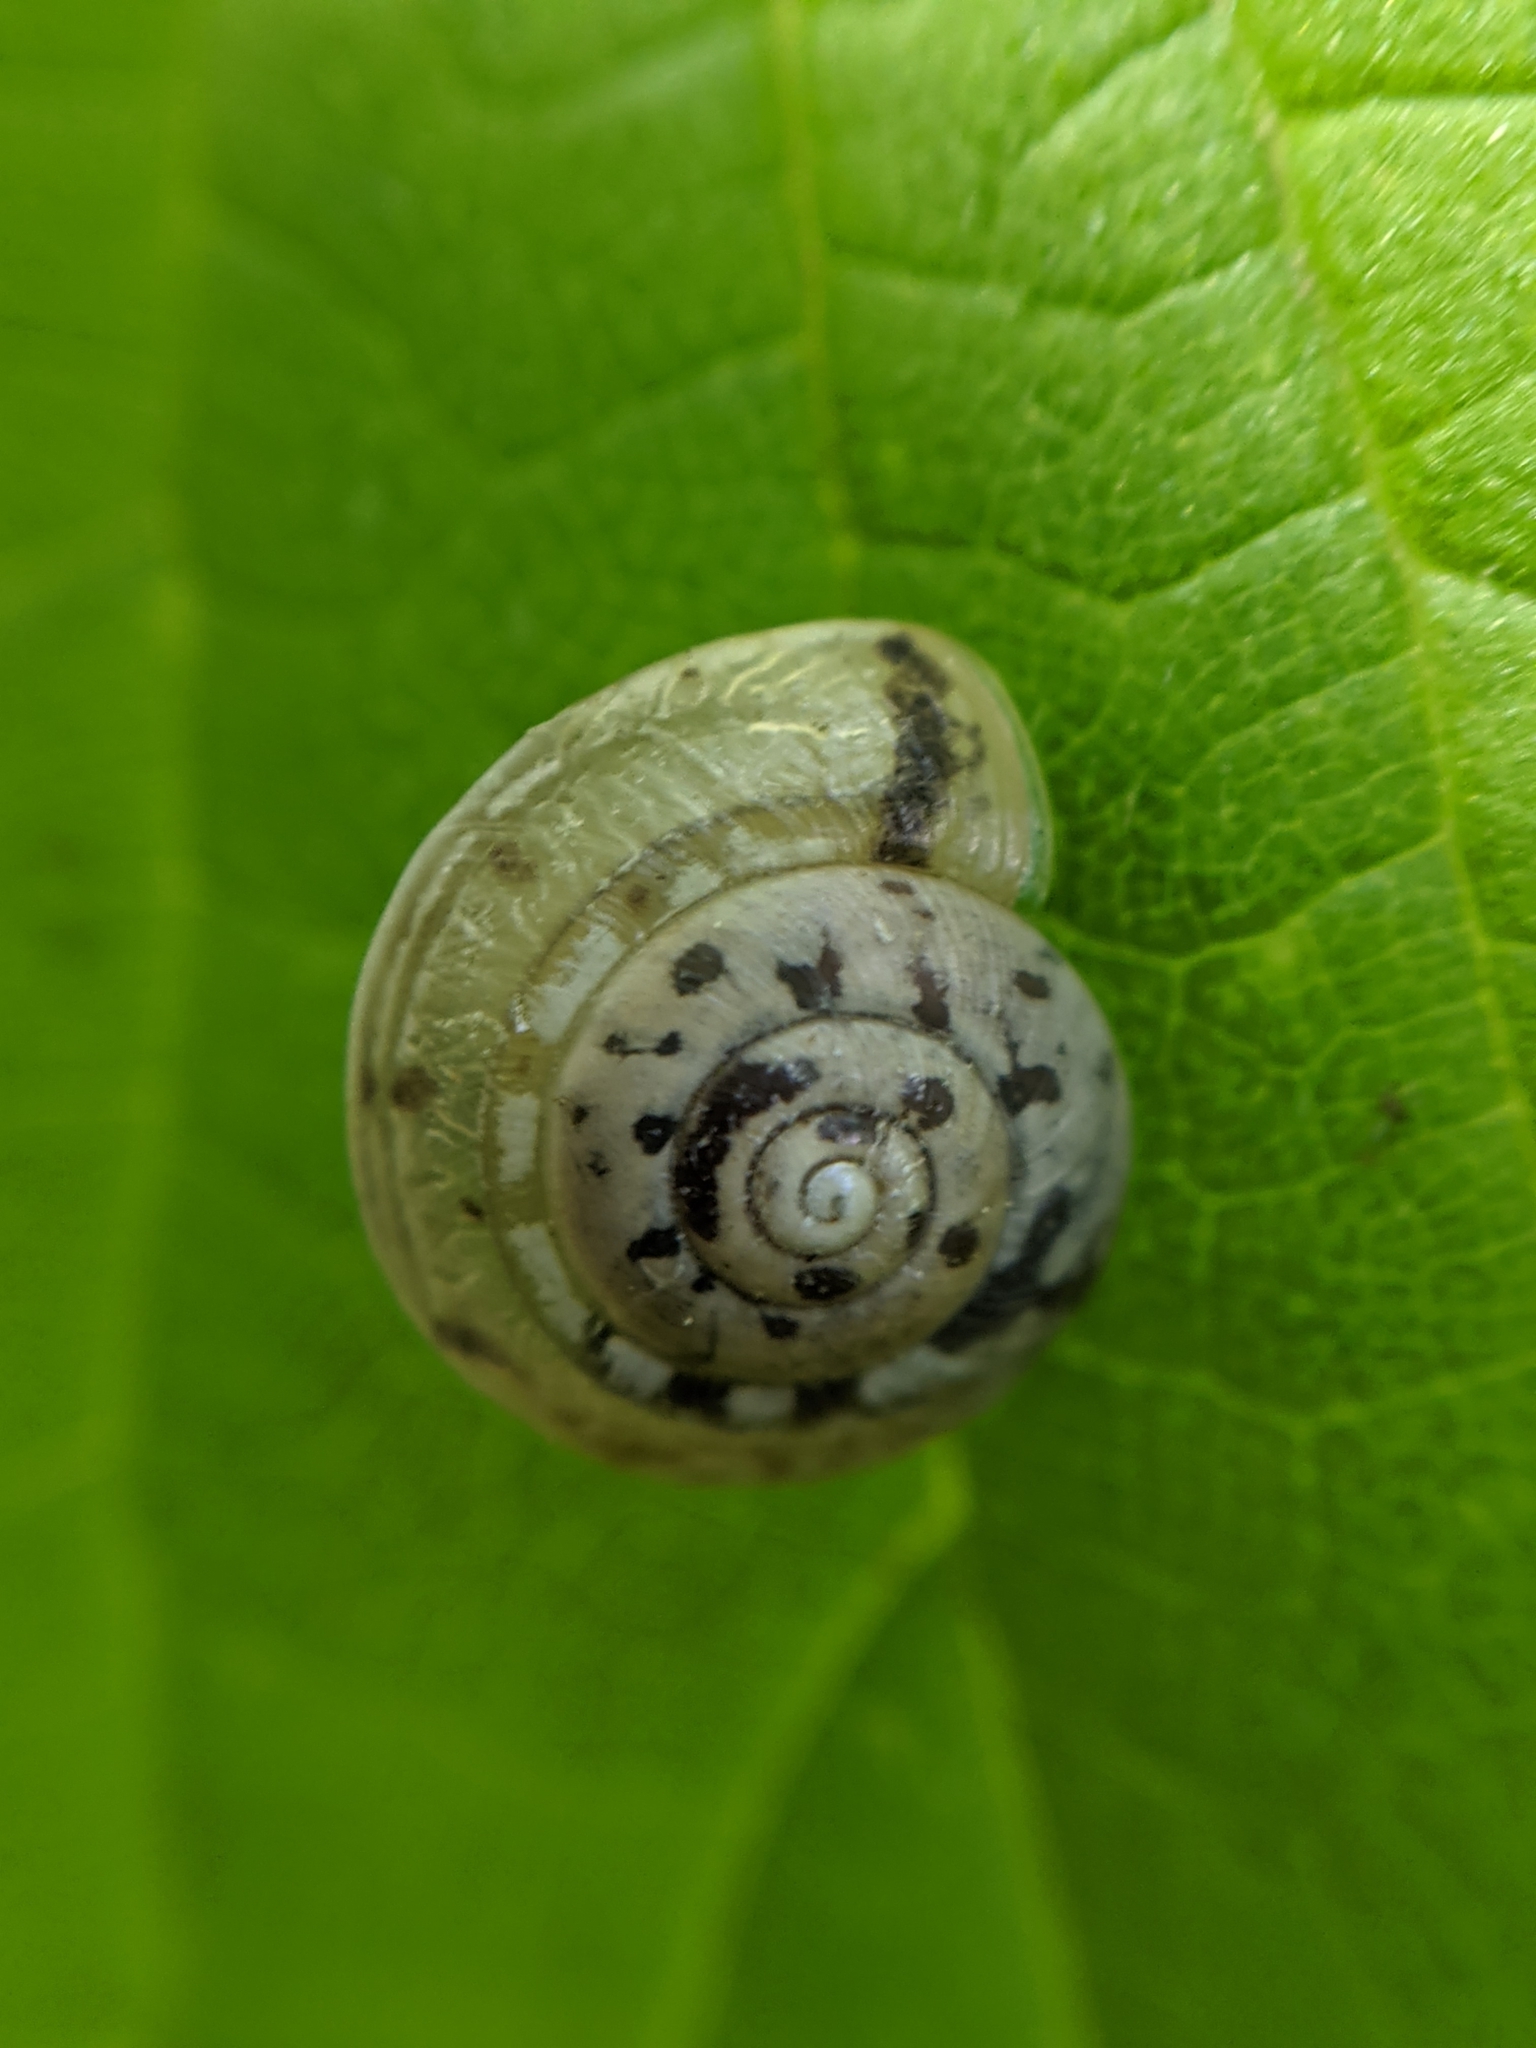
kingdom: Animalia
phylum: Mollusca
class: Gastropoda
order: Stylommatophora
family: Hygromiidae
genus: Hygromia
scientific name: Hygromia cinctella
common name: Girdled snail
